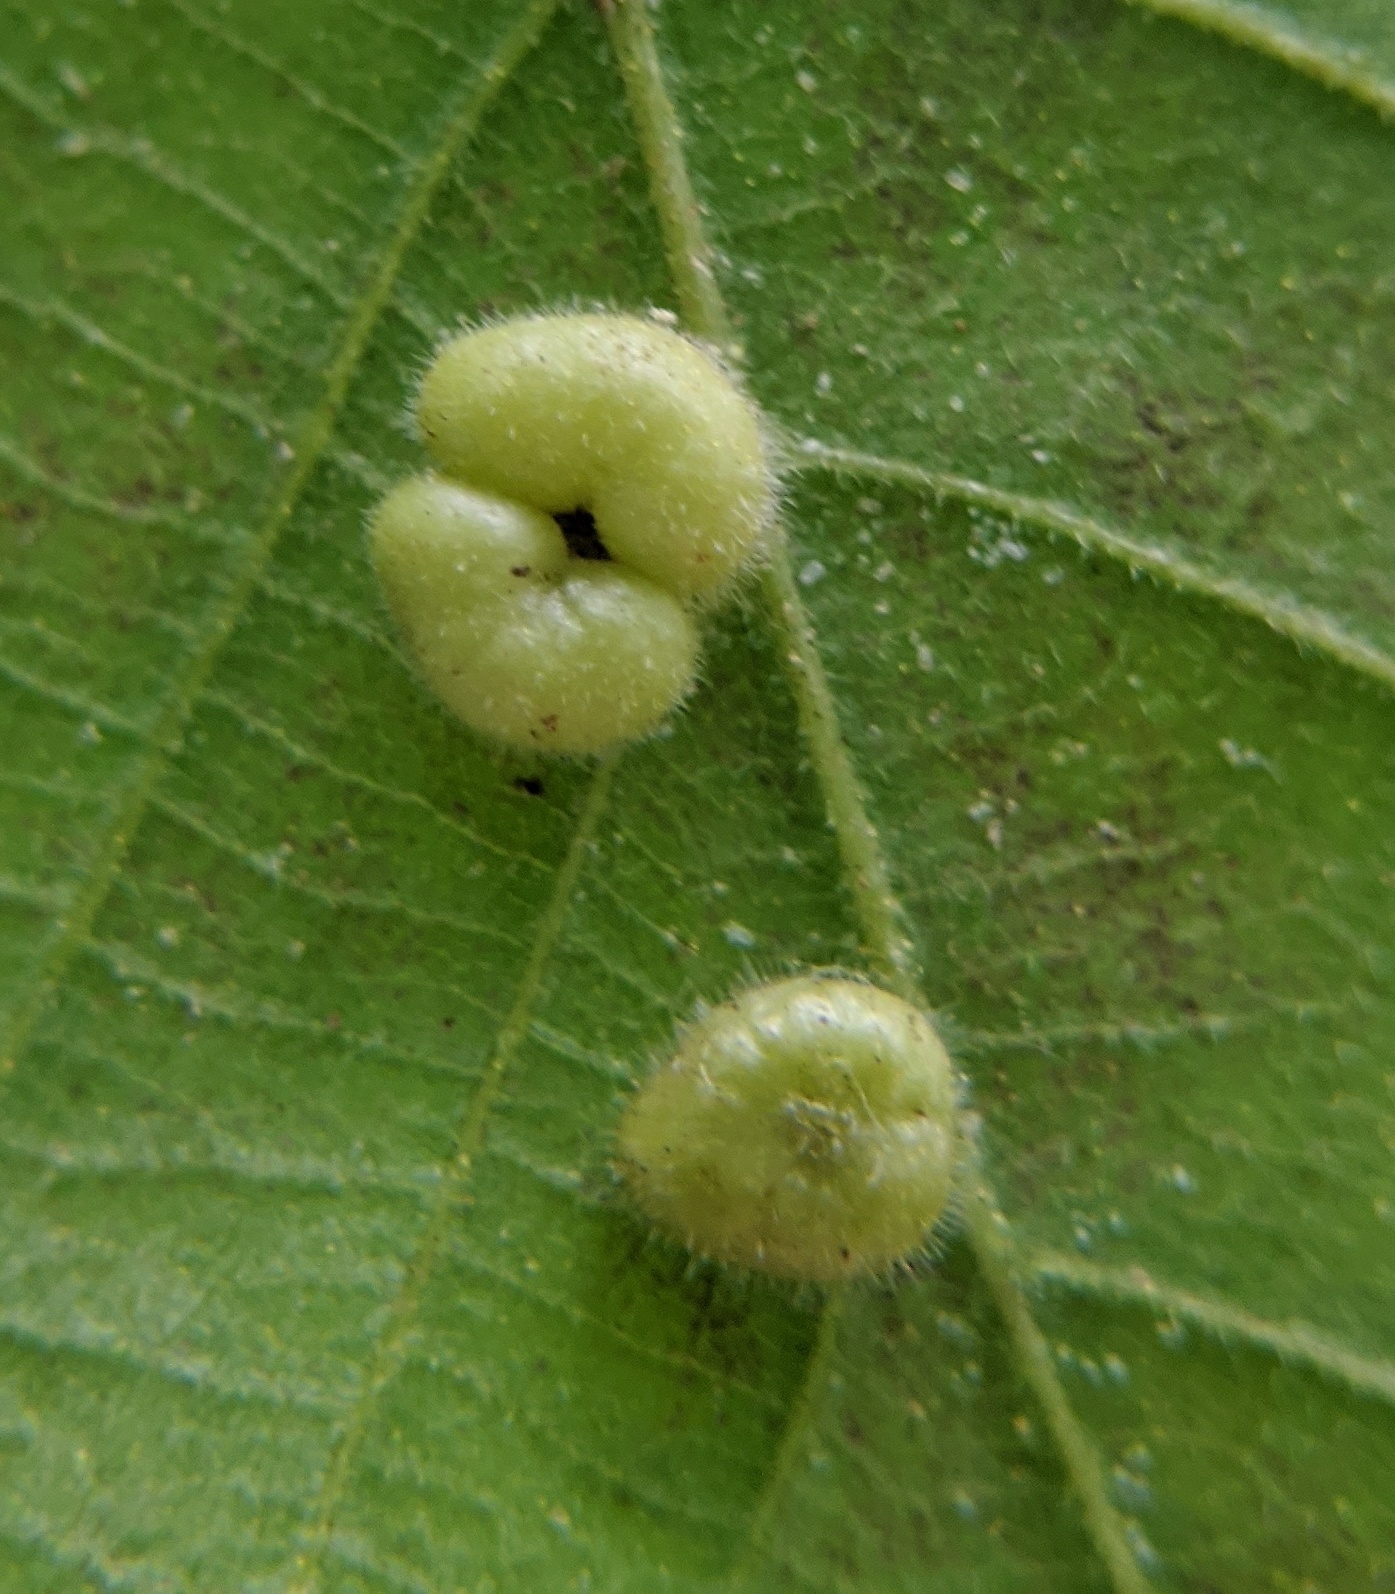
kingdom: Animalia
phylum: Arthropoda
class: Insecta
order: Diptera
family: Cecidomyiidae
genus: Caryomyia
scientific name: Caryomyia thompsoni
